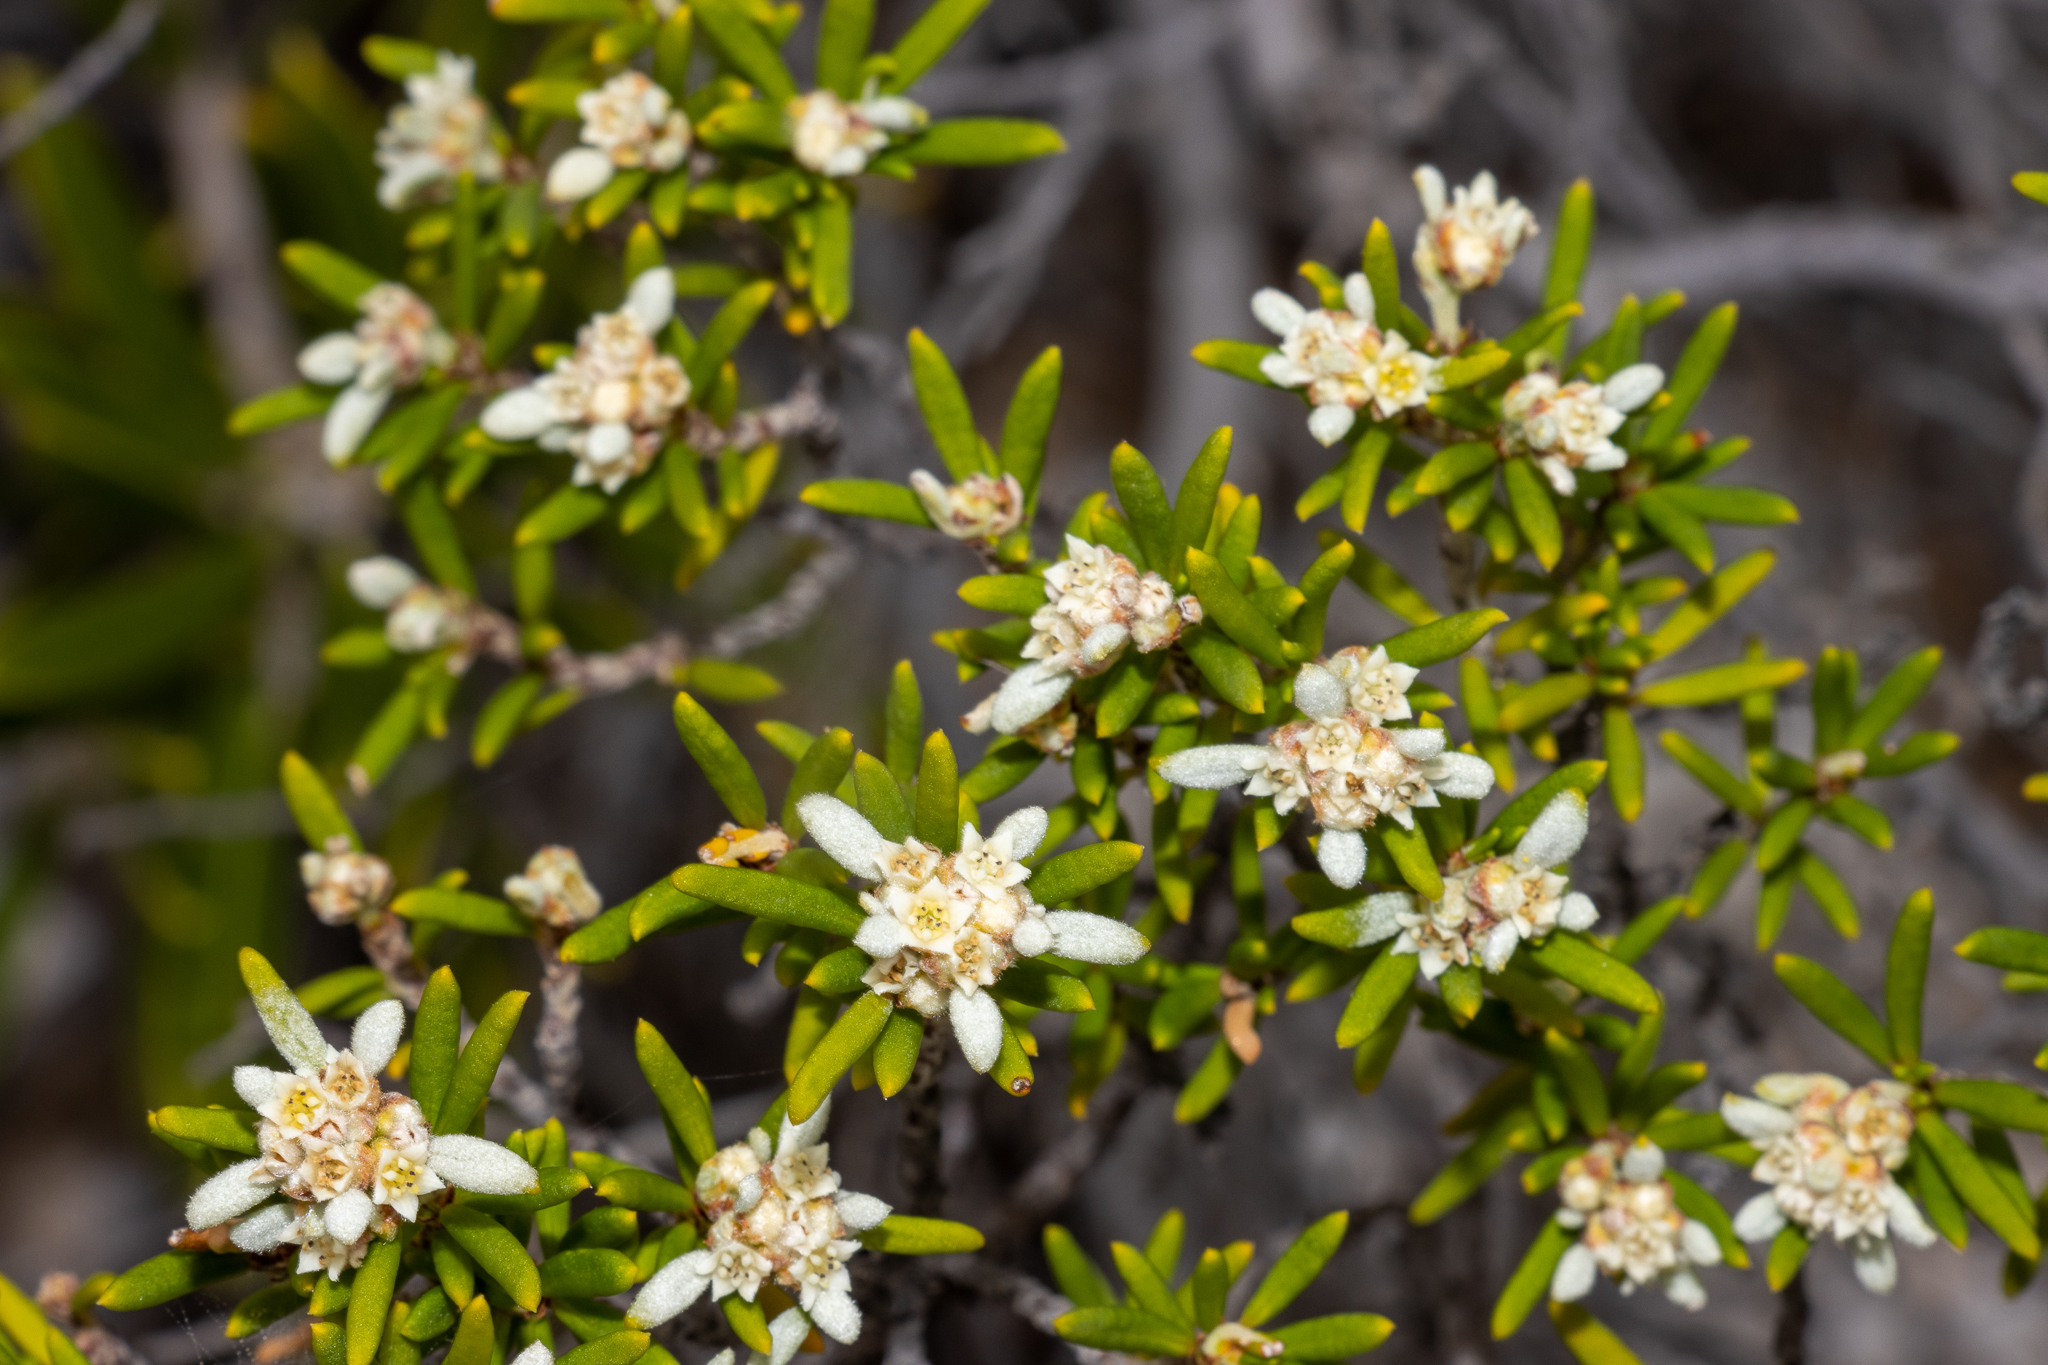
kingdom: Plantae
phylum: Tracheophyta
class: Magnoliopsida
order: Rosales
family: Rhamnaceae
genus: Spyridium
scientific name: Spyridium phylicoides
